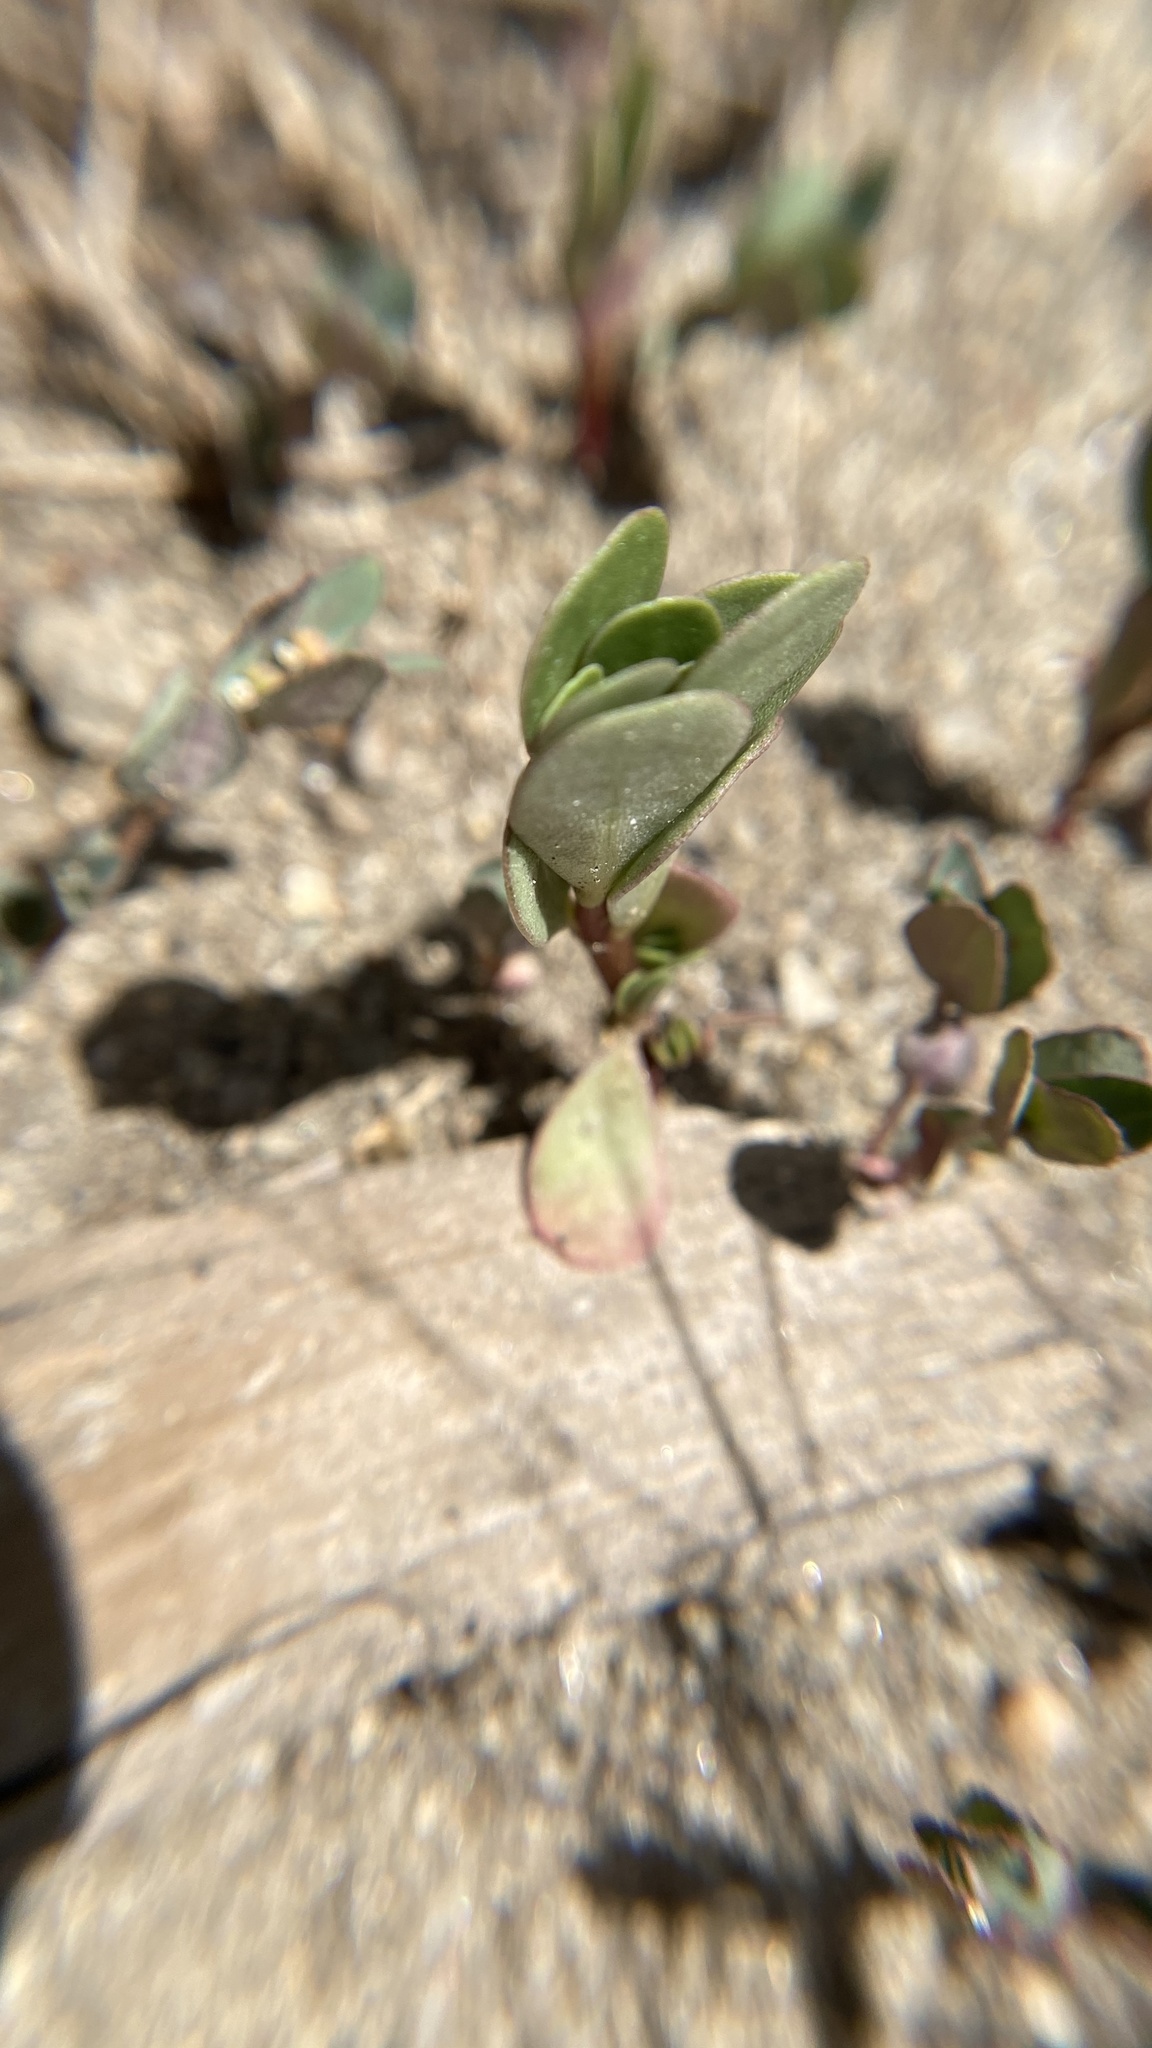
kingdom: Plantae
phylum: Tracheophyta
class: Magnoliopsida
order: Caryophyllales
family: Portulacaceae
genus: Portulaca
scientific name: Portulaca oleracea
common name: Common purslane
